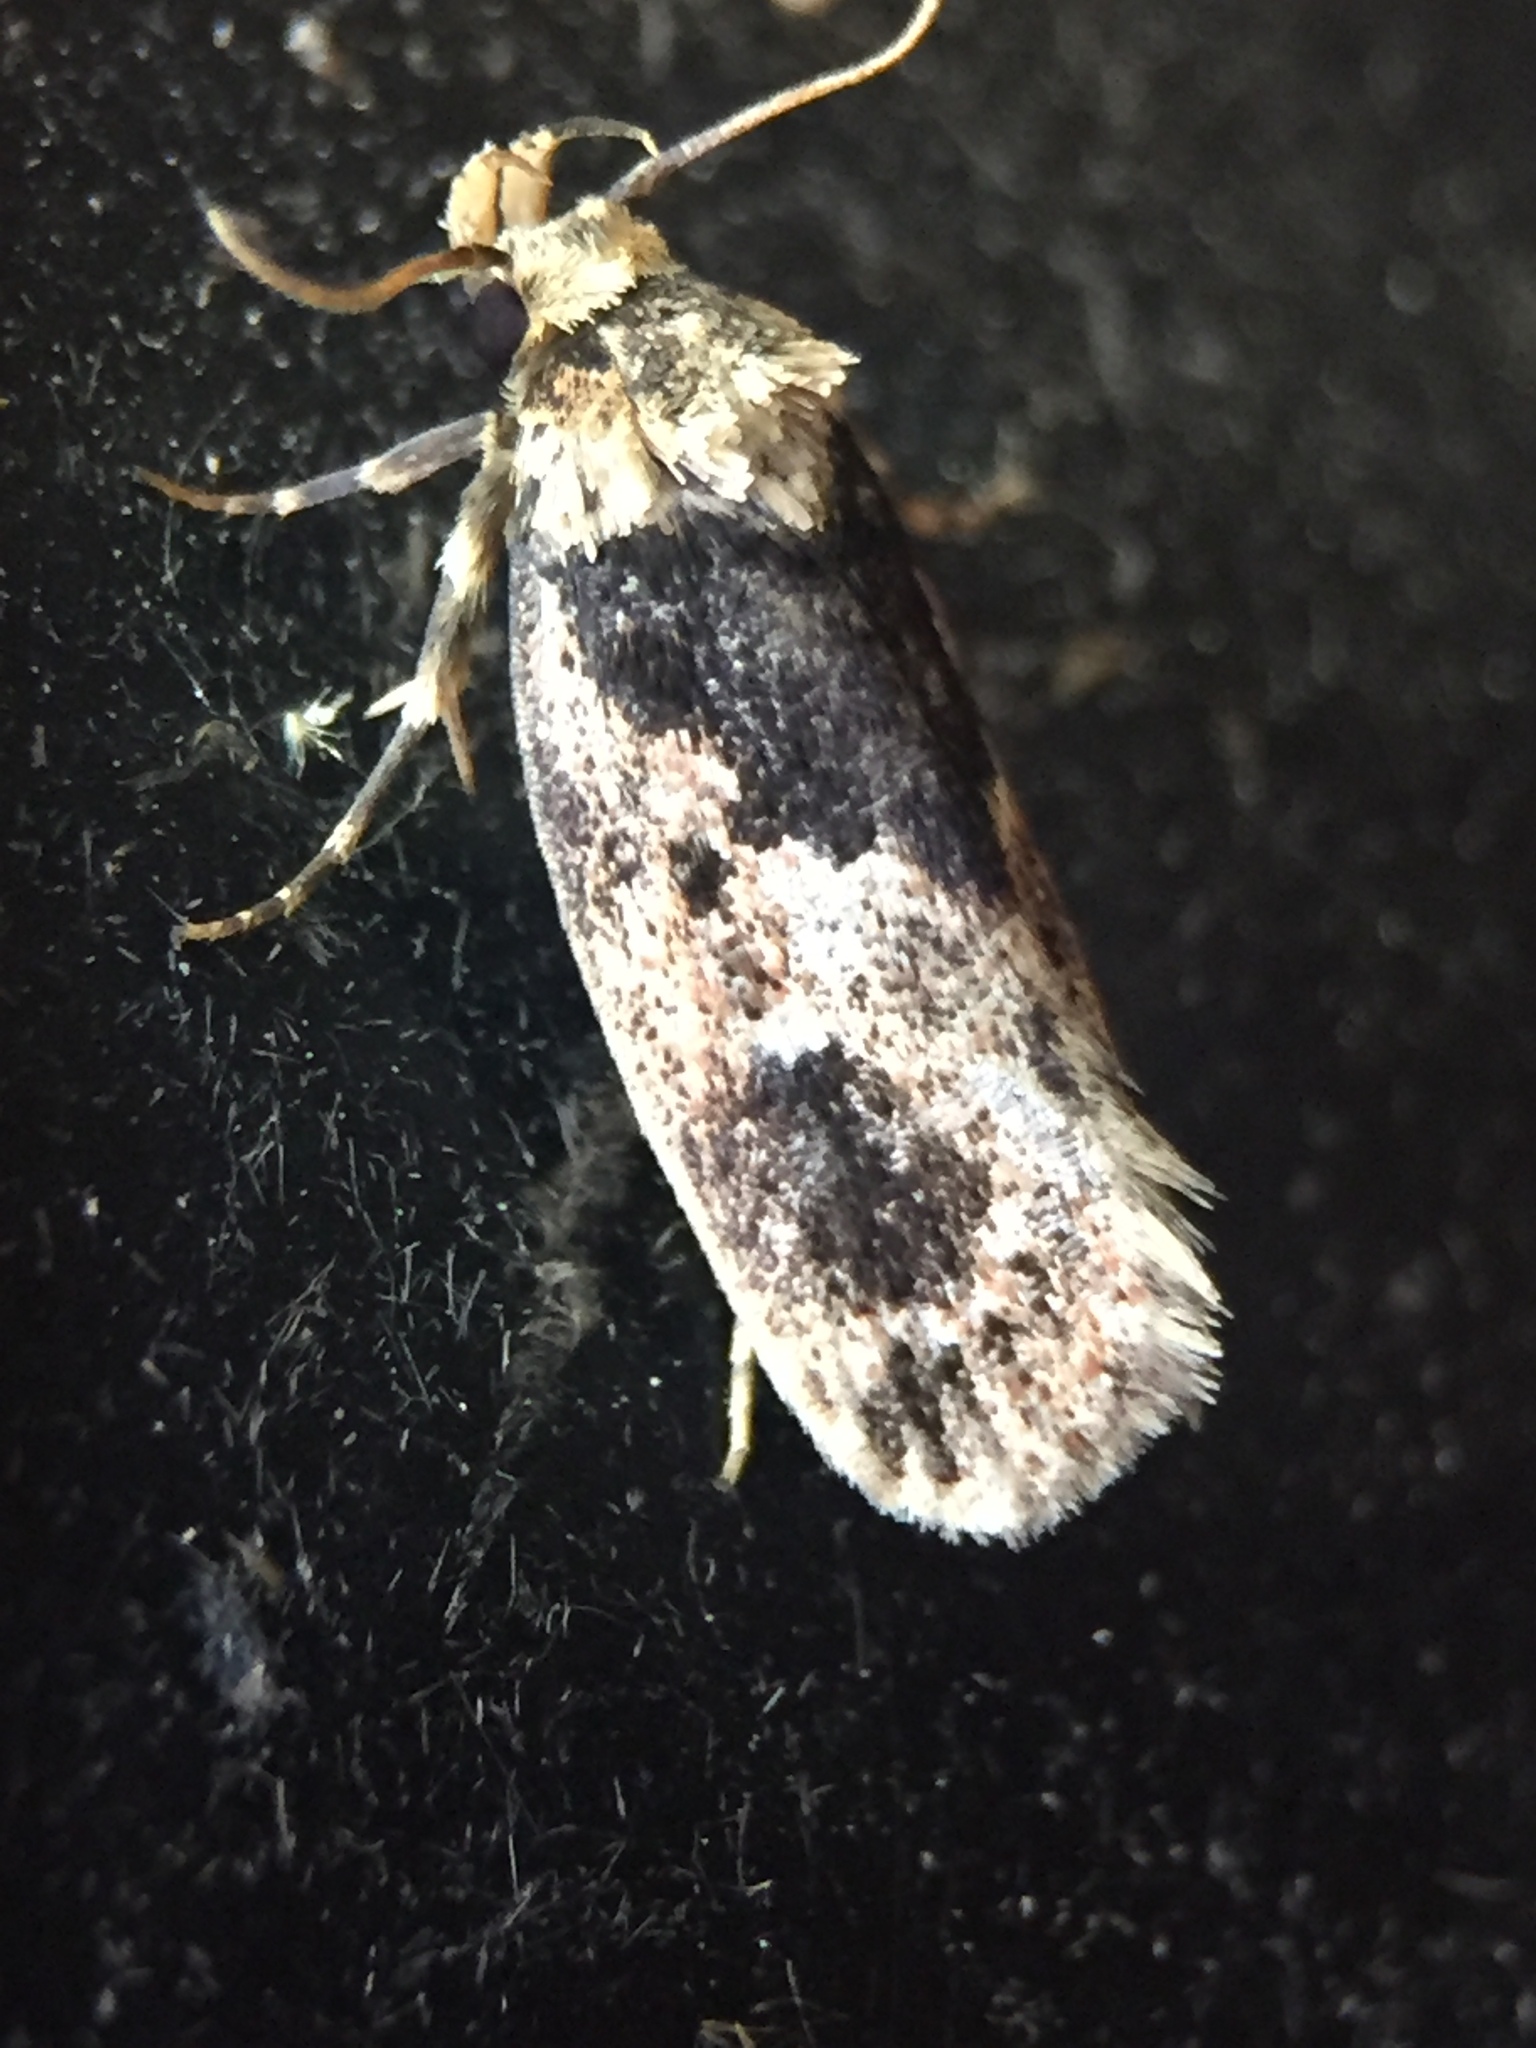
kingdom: Animalia
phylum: Arthropoda
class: Insecta
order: Lepidoptera
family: Oecophoridae
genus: Barea
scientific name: Barea consignatella
